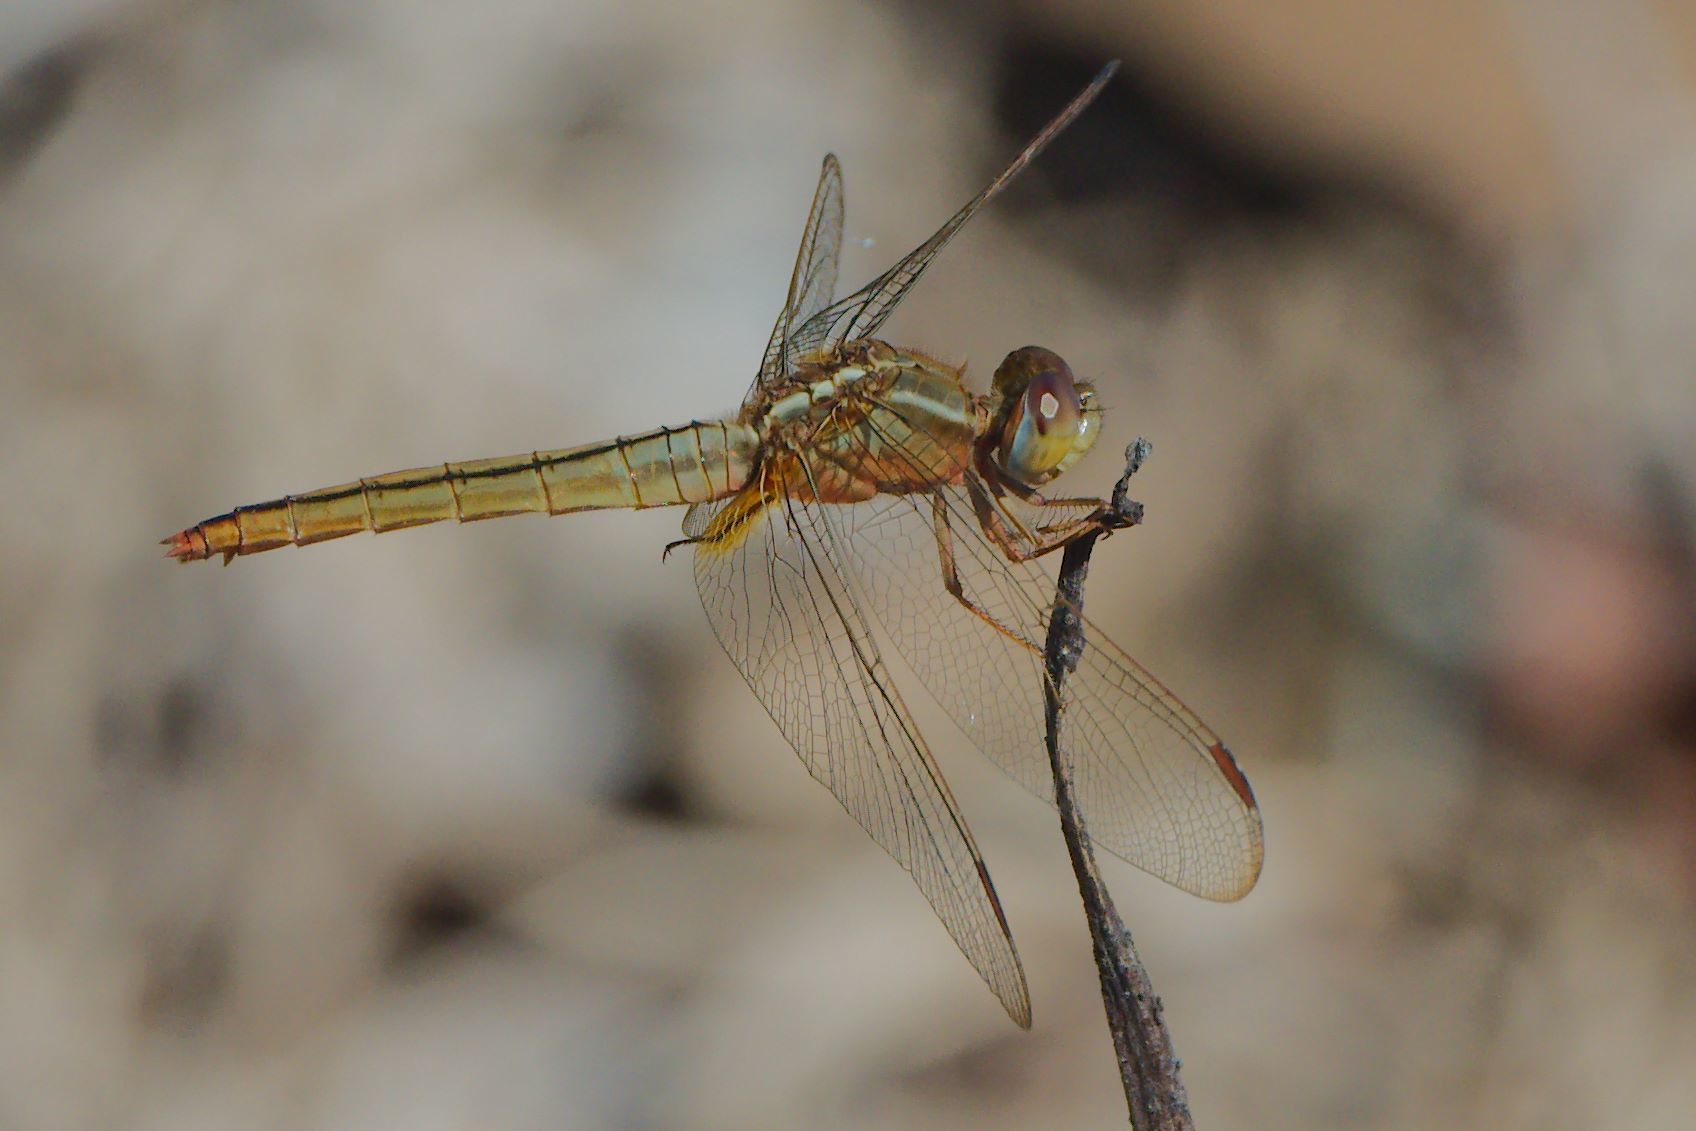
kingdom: Animalia
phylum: Arthropoda
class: Insecta
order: Odonata
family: Libellulidae
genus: Crocothemis
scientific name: Crocothemis servilia
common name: Scarlet skimmer
